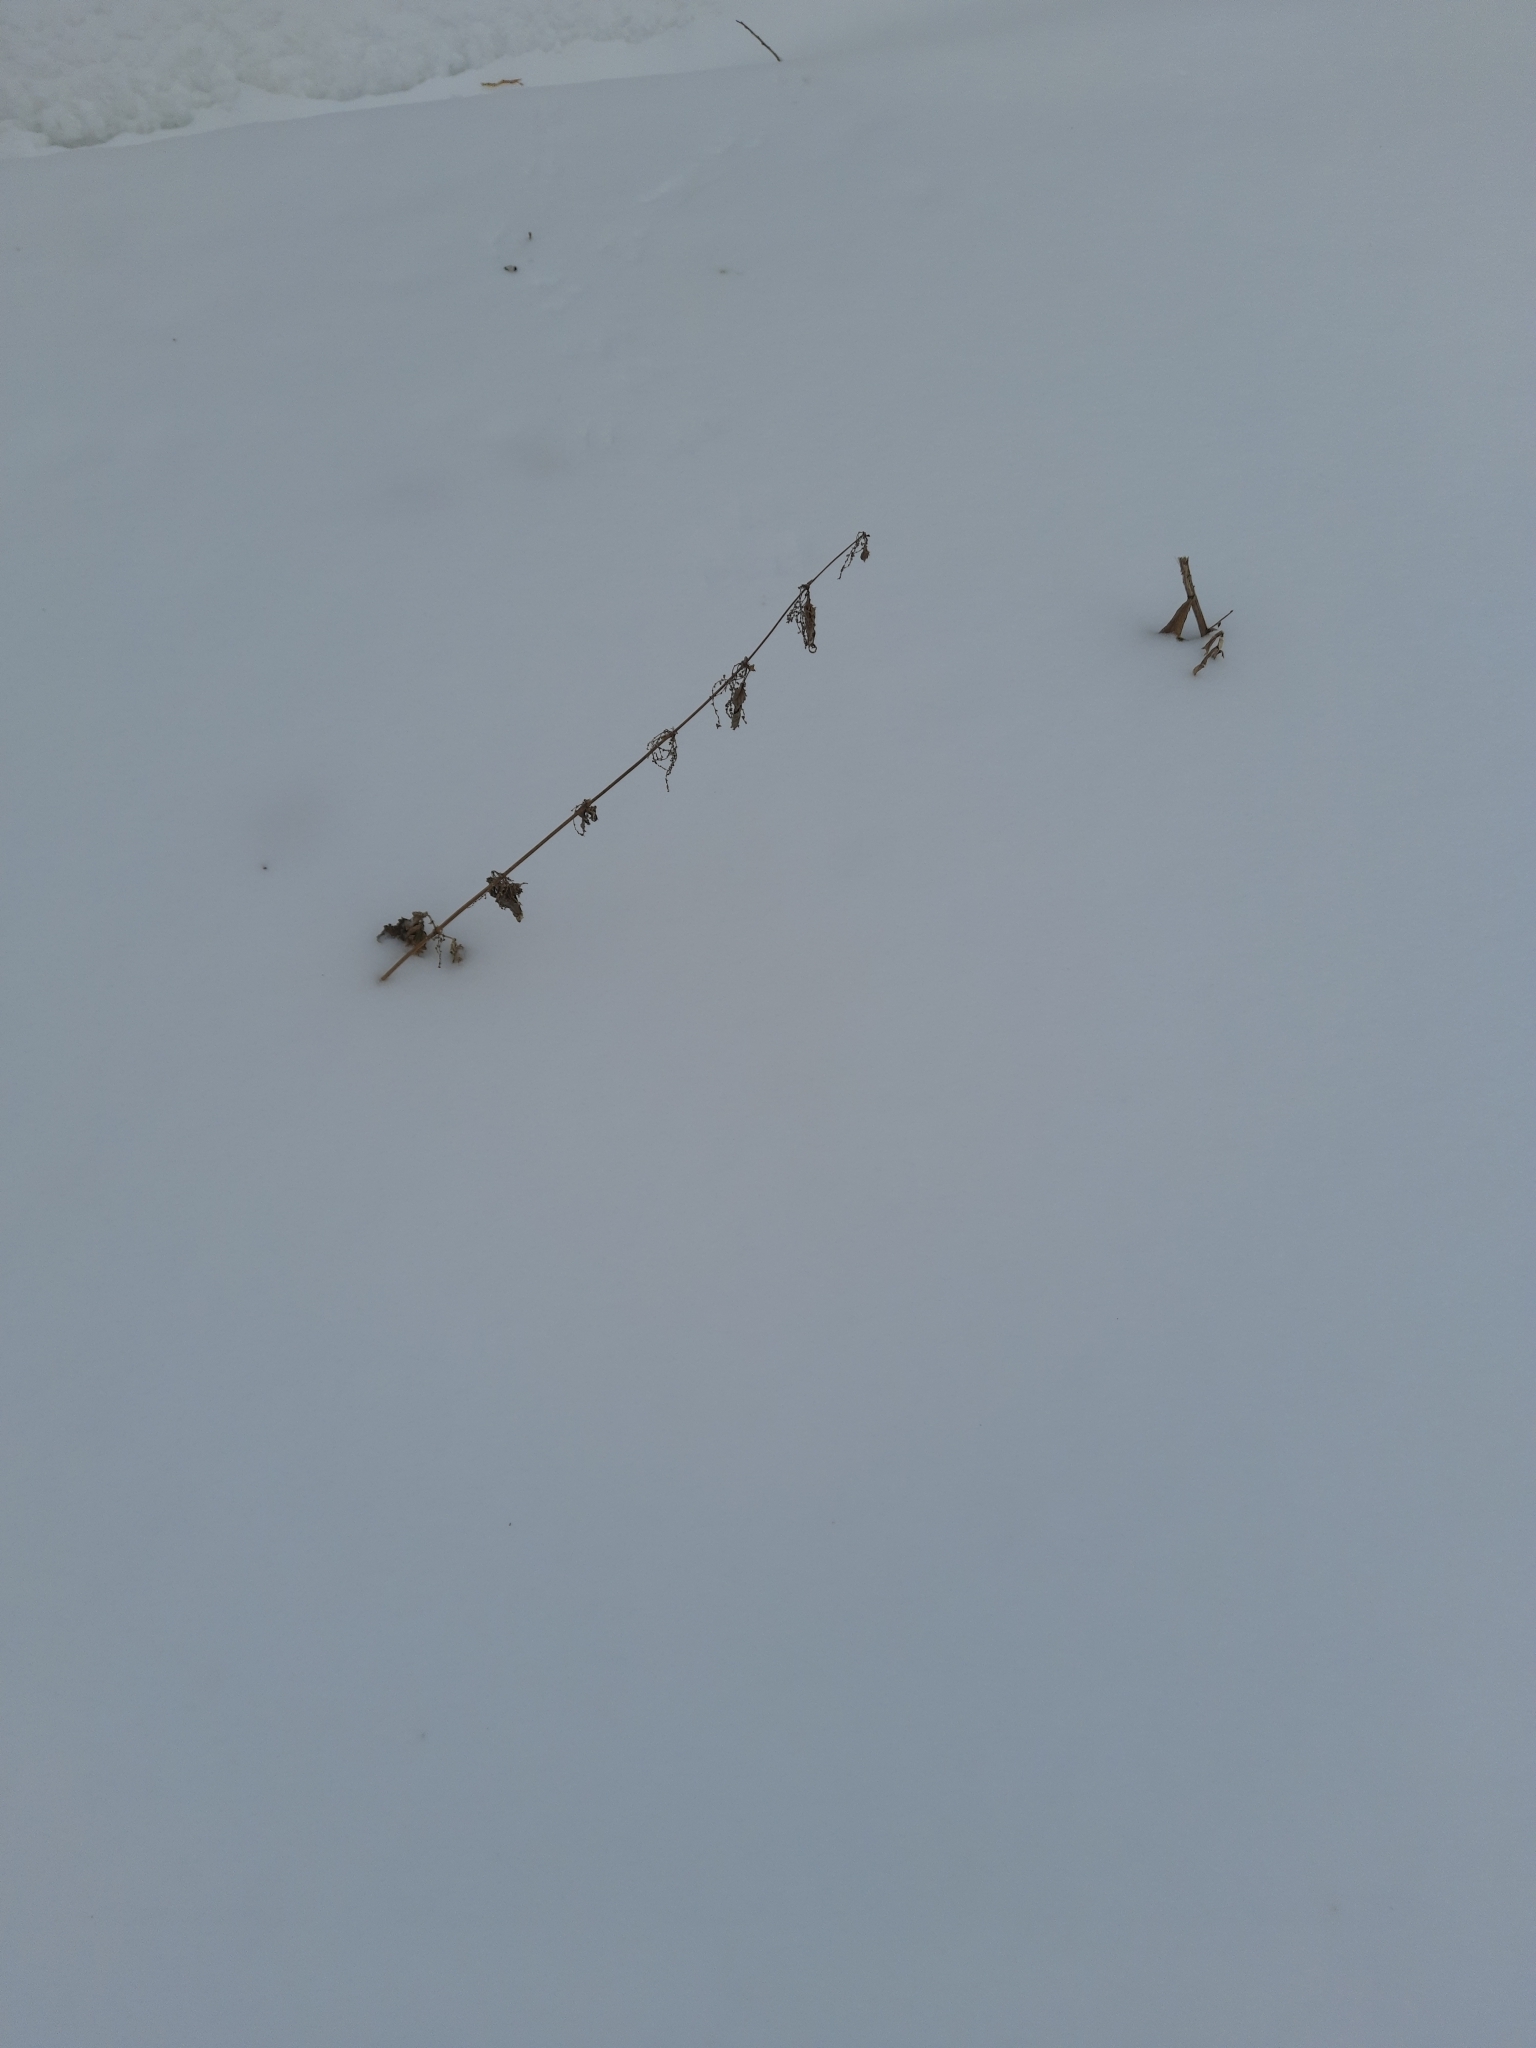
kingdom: Plantae
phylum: Tracheophyta
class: Magnoliopsida
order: Rosales
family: Urticaceae
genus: Urtica
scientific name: Urtica dioica
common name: Common nettle
